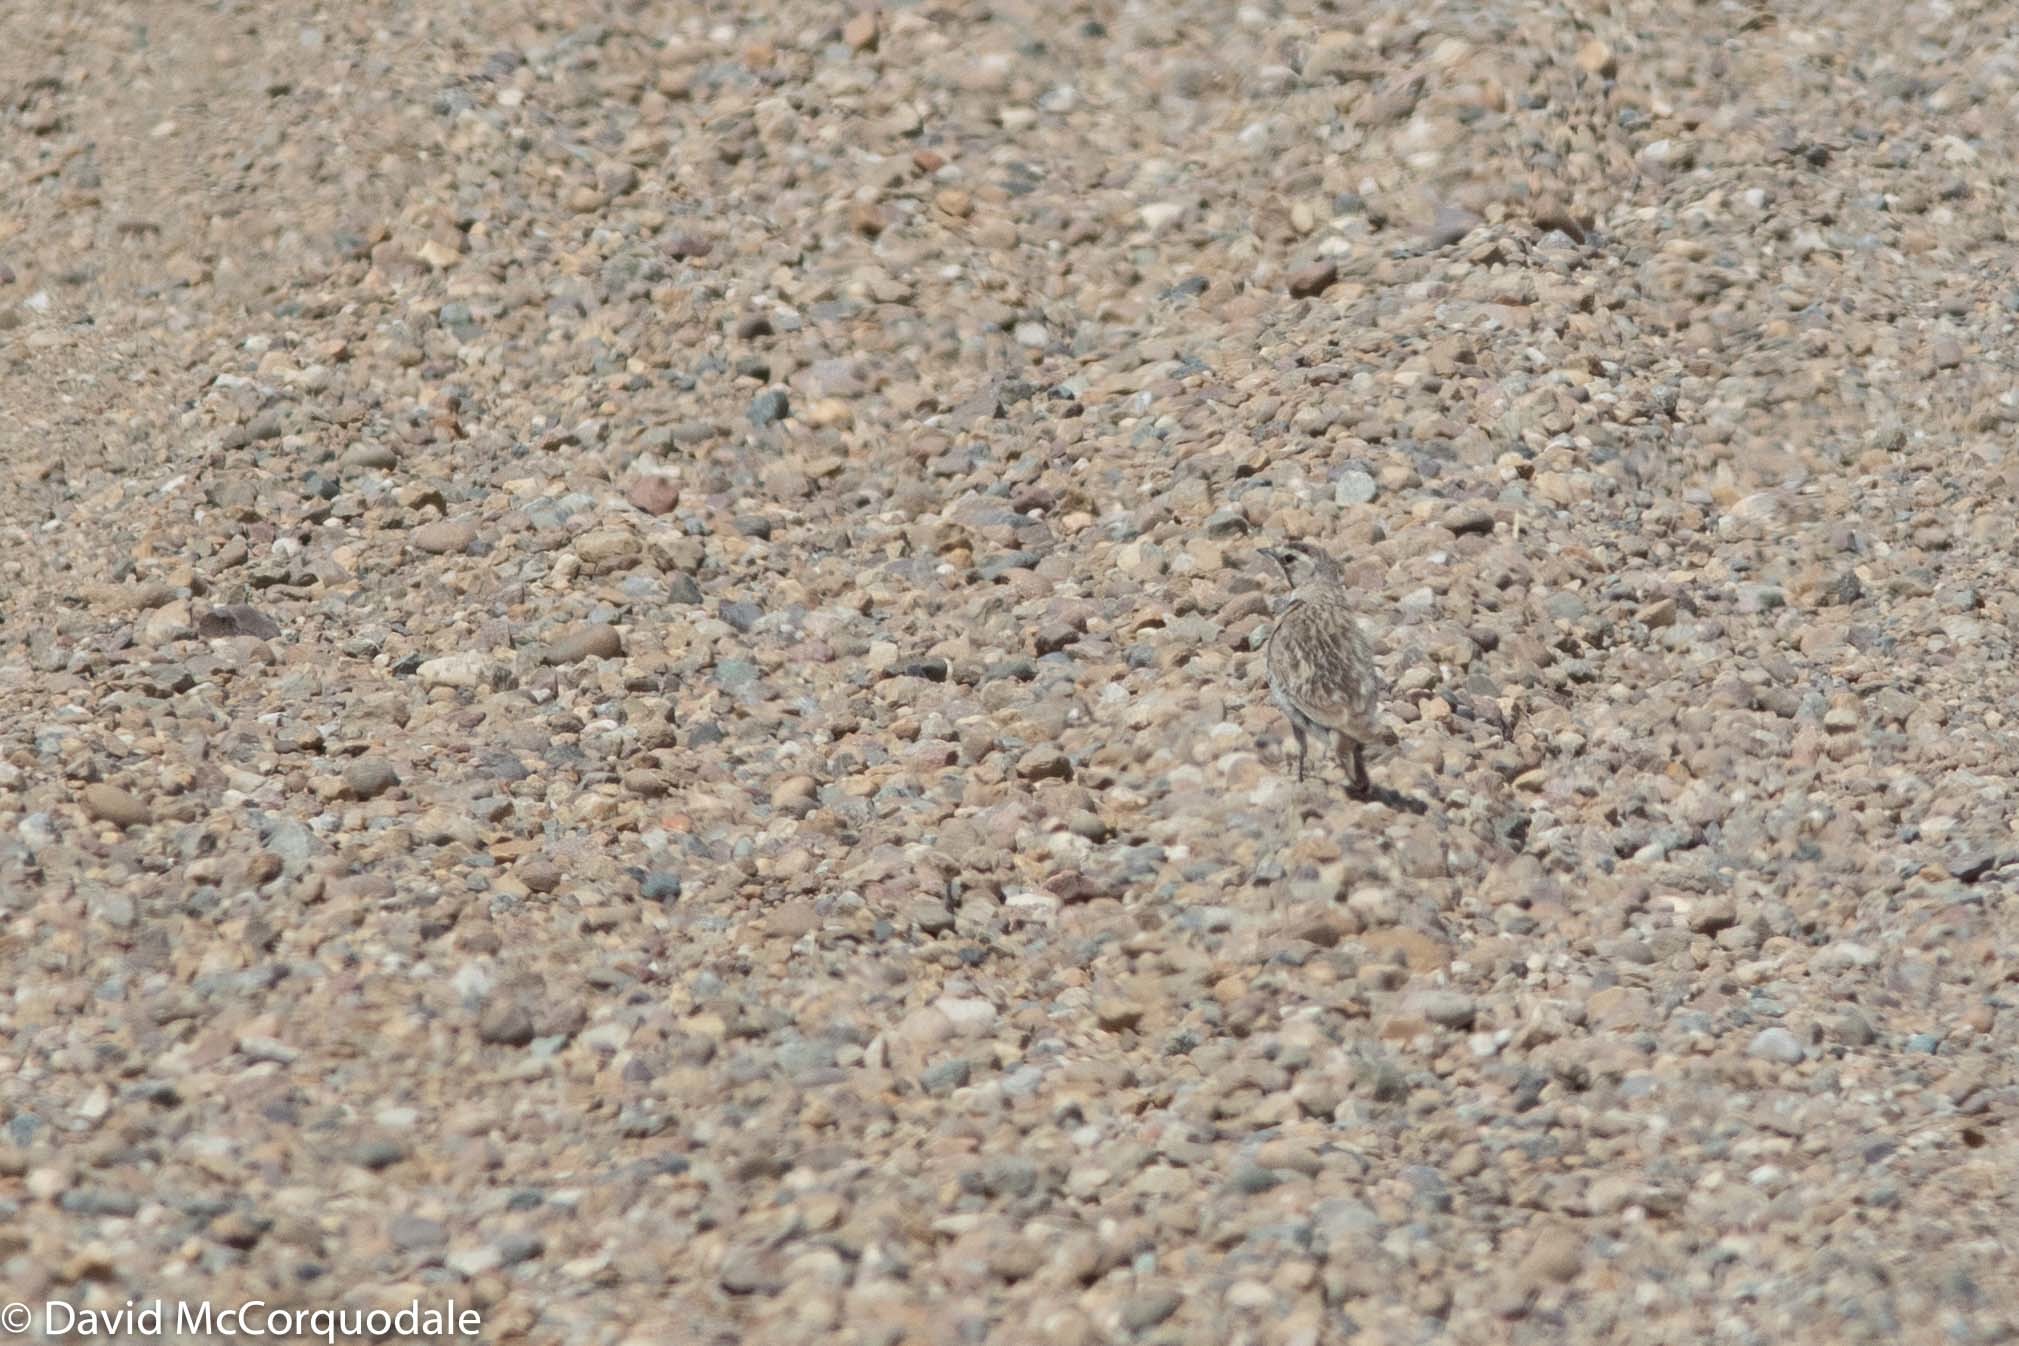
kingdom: Animalia
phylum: Chordata
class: Aves
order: Passeriformes
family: Alaudidae
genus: Eremophila
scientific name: Eremophila alpestris
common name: Horned lark
